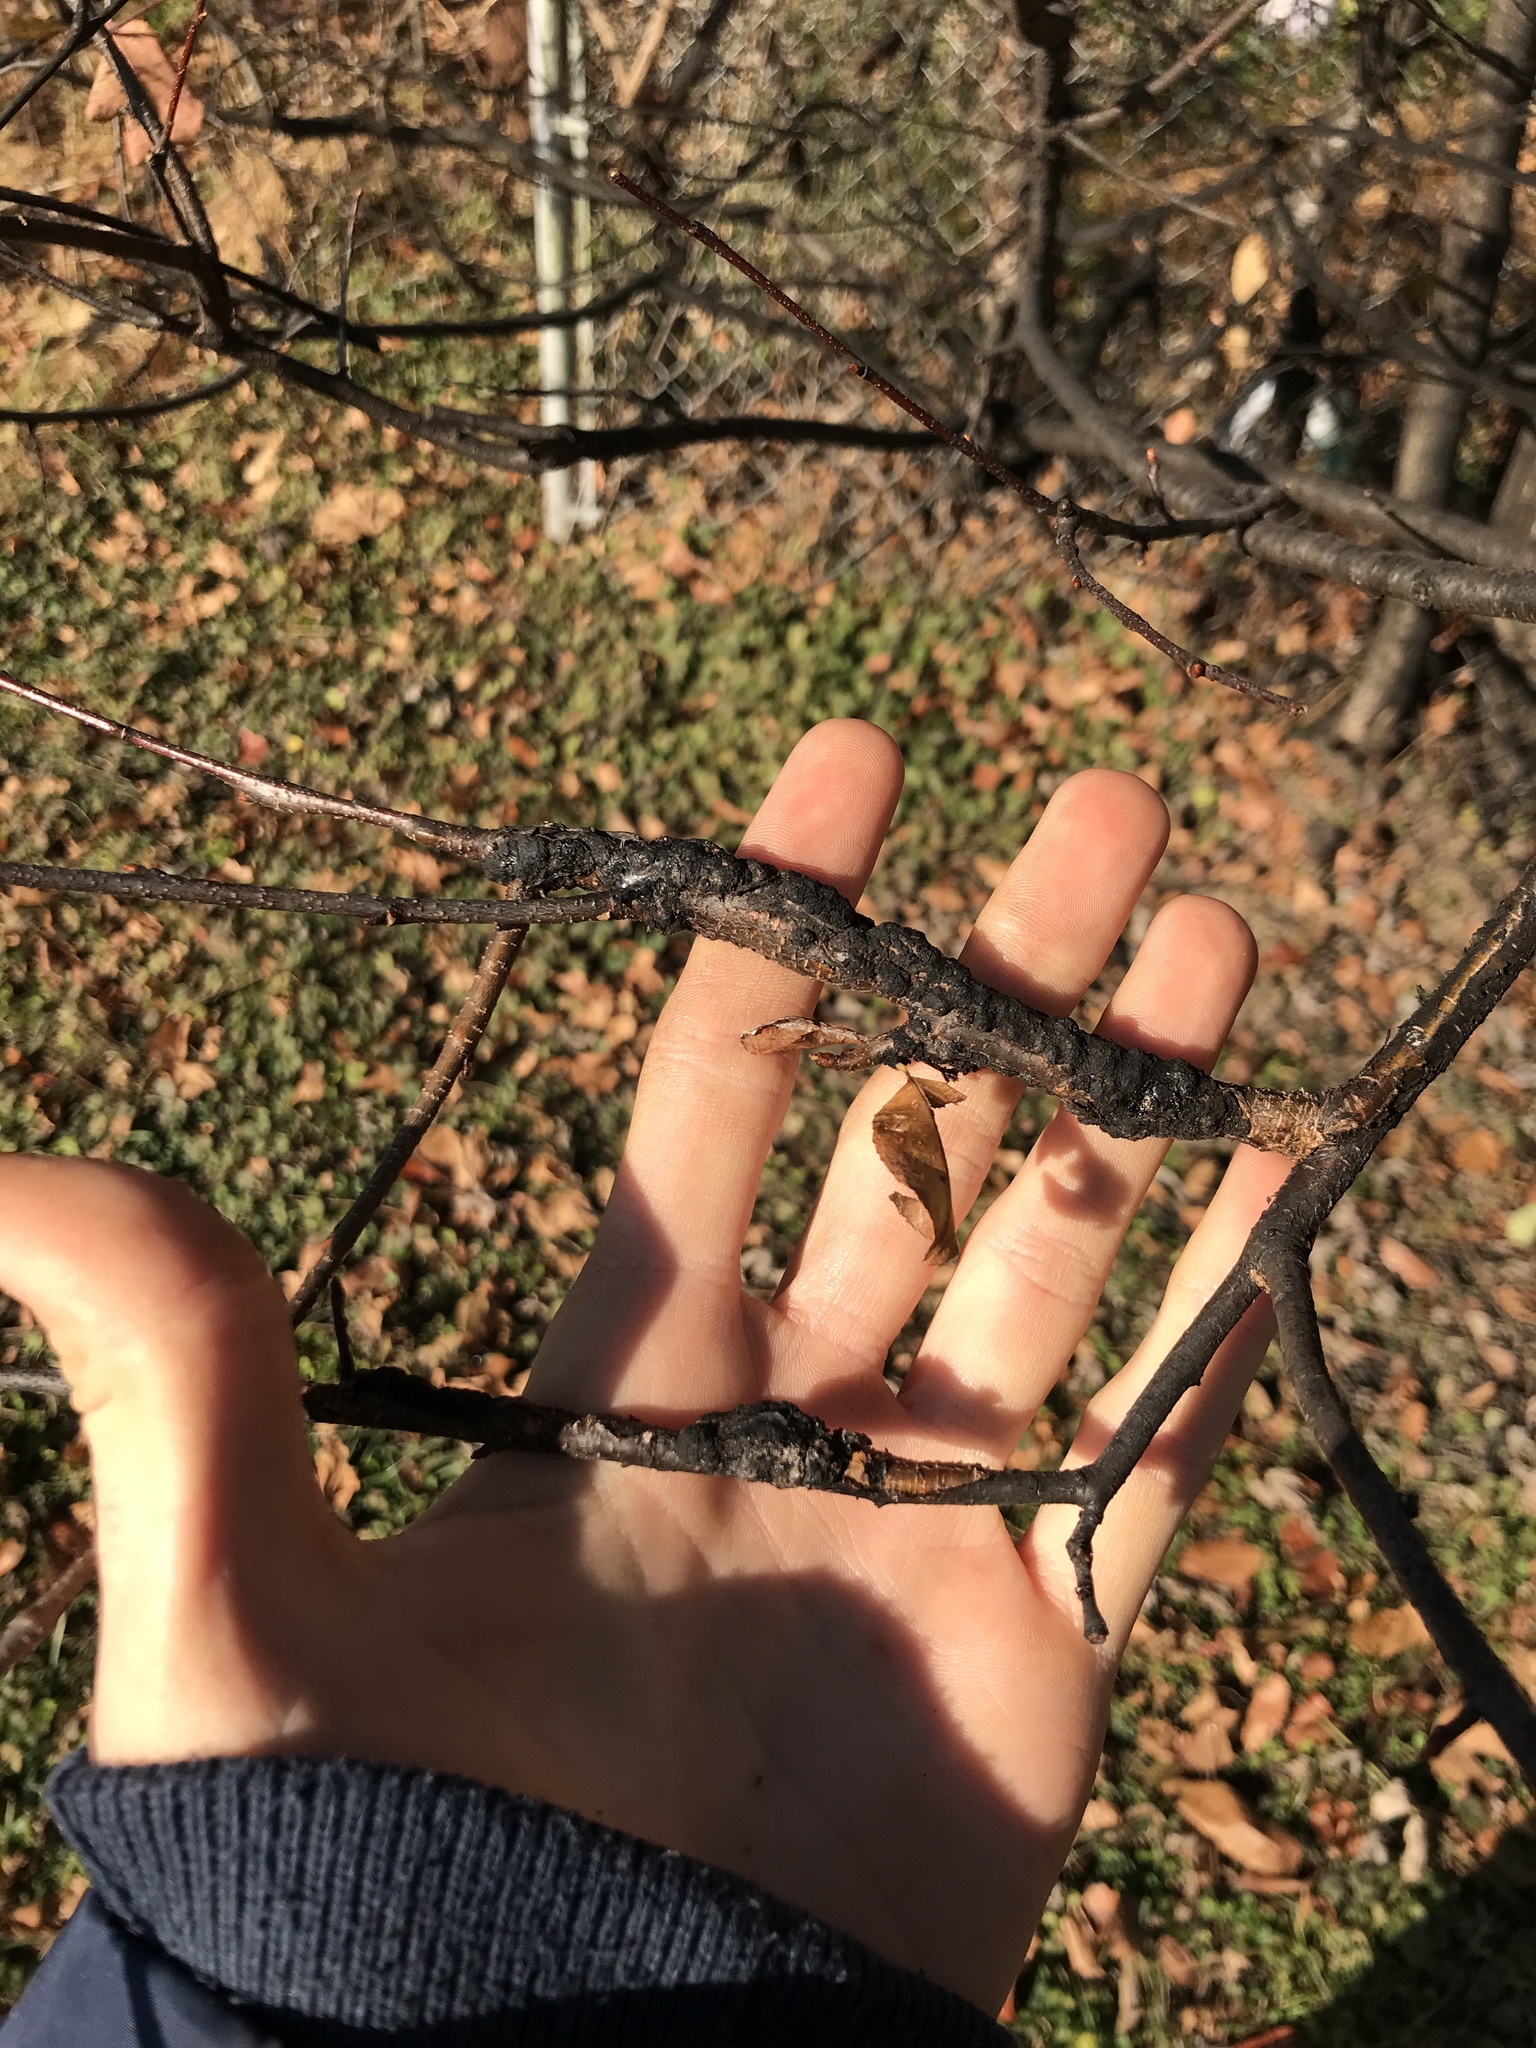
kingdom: Fungi
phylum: Ascomycota
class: Dothideomycetes
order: Venturiales
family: Venturiaceae
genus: Apiosporina
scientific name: Apiosporina morbosa
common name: Black knot
